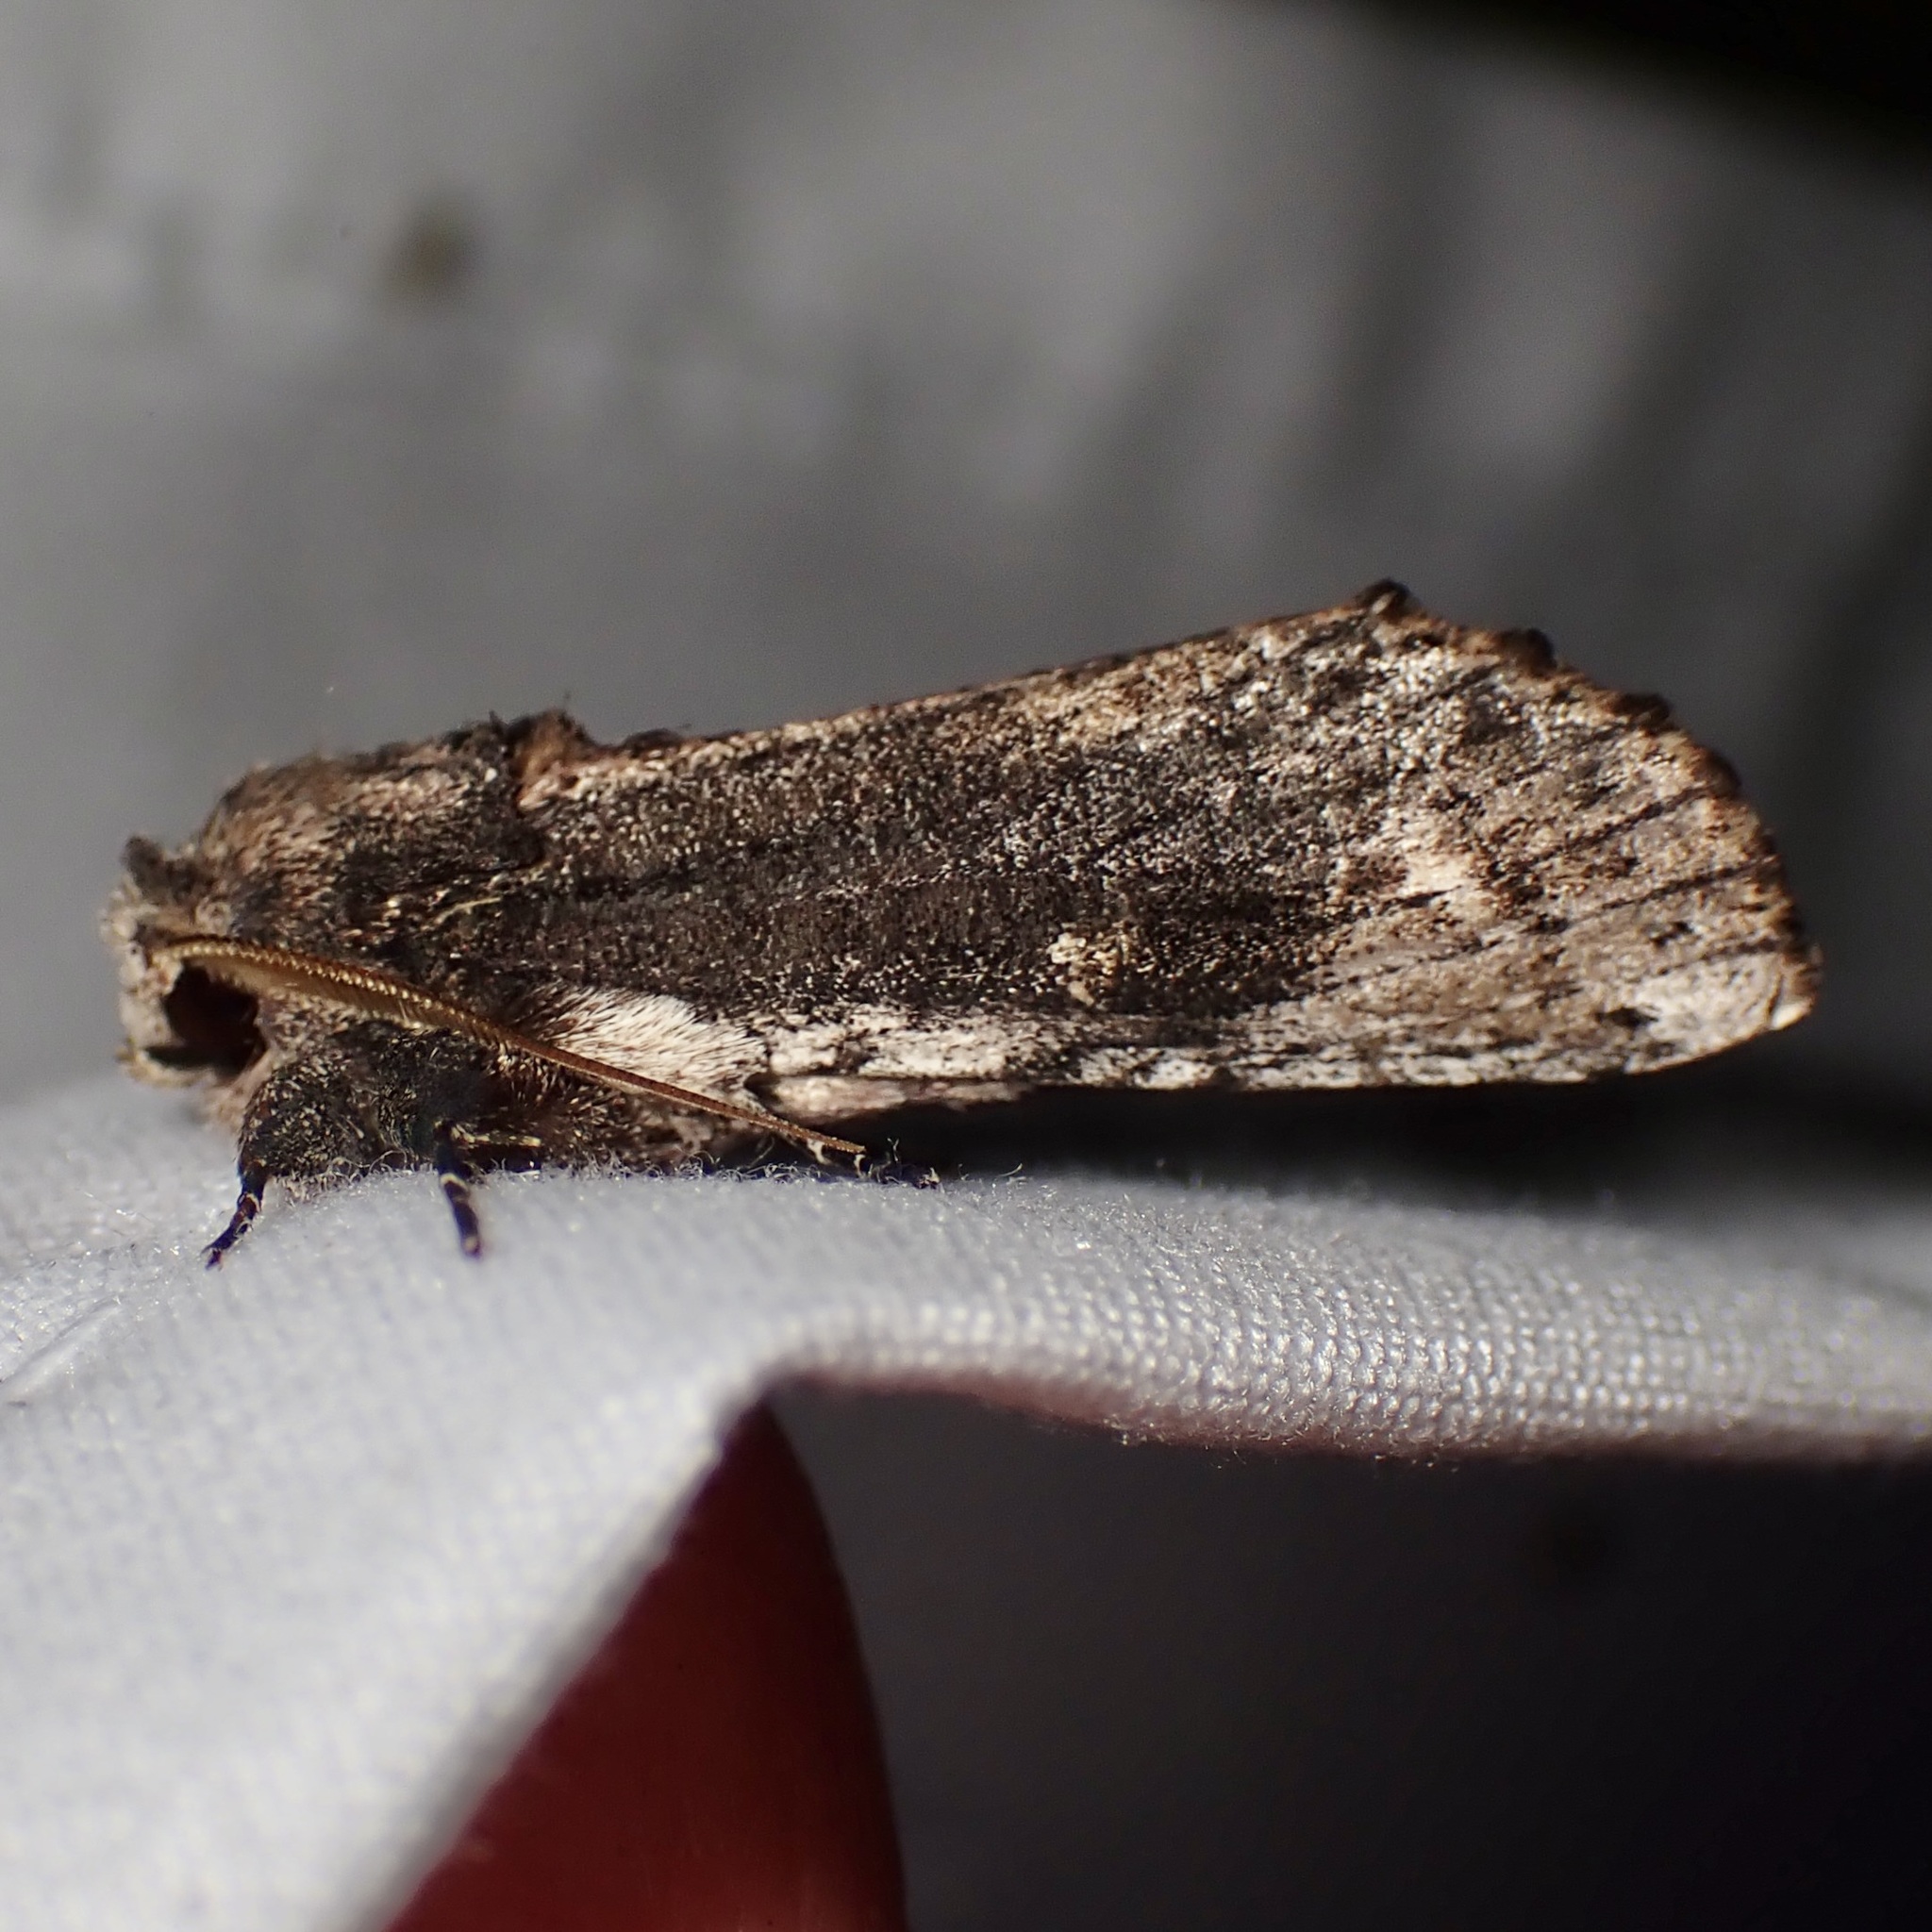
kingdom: Animalia
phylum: Arthropoda
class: Insecta
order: Lepidoptera
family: Notodontidae
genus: Schizura
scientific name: Schizura
